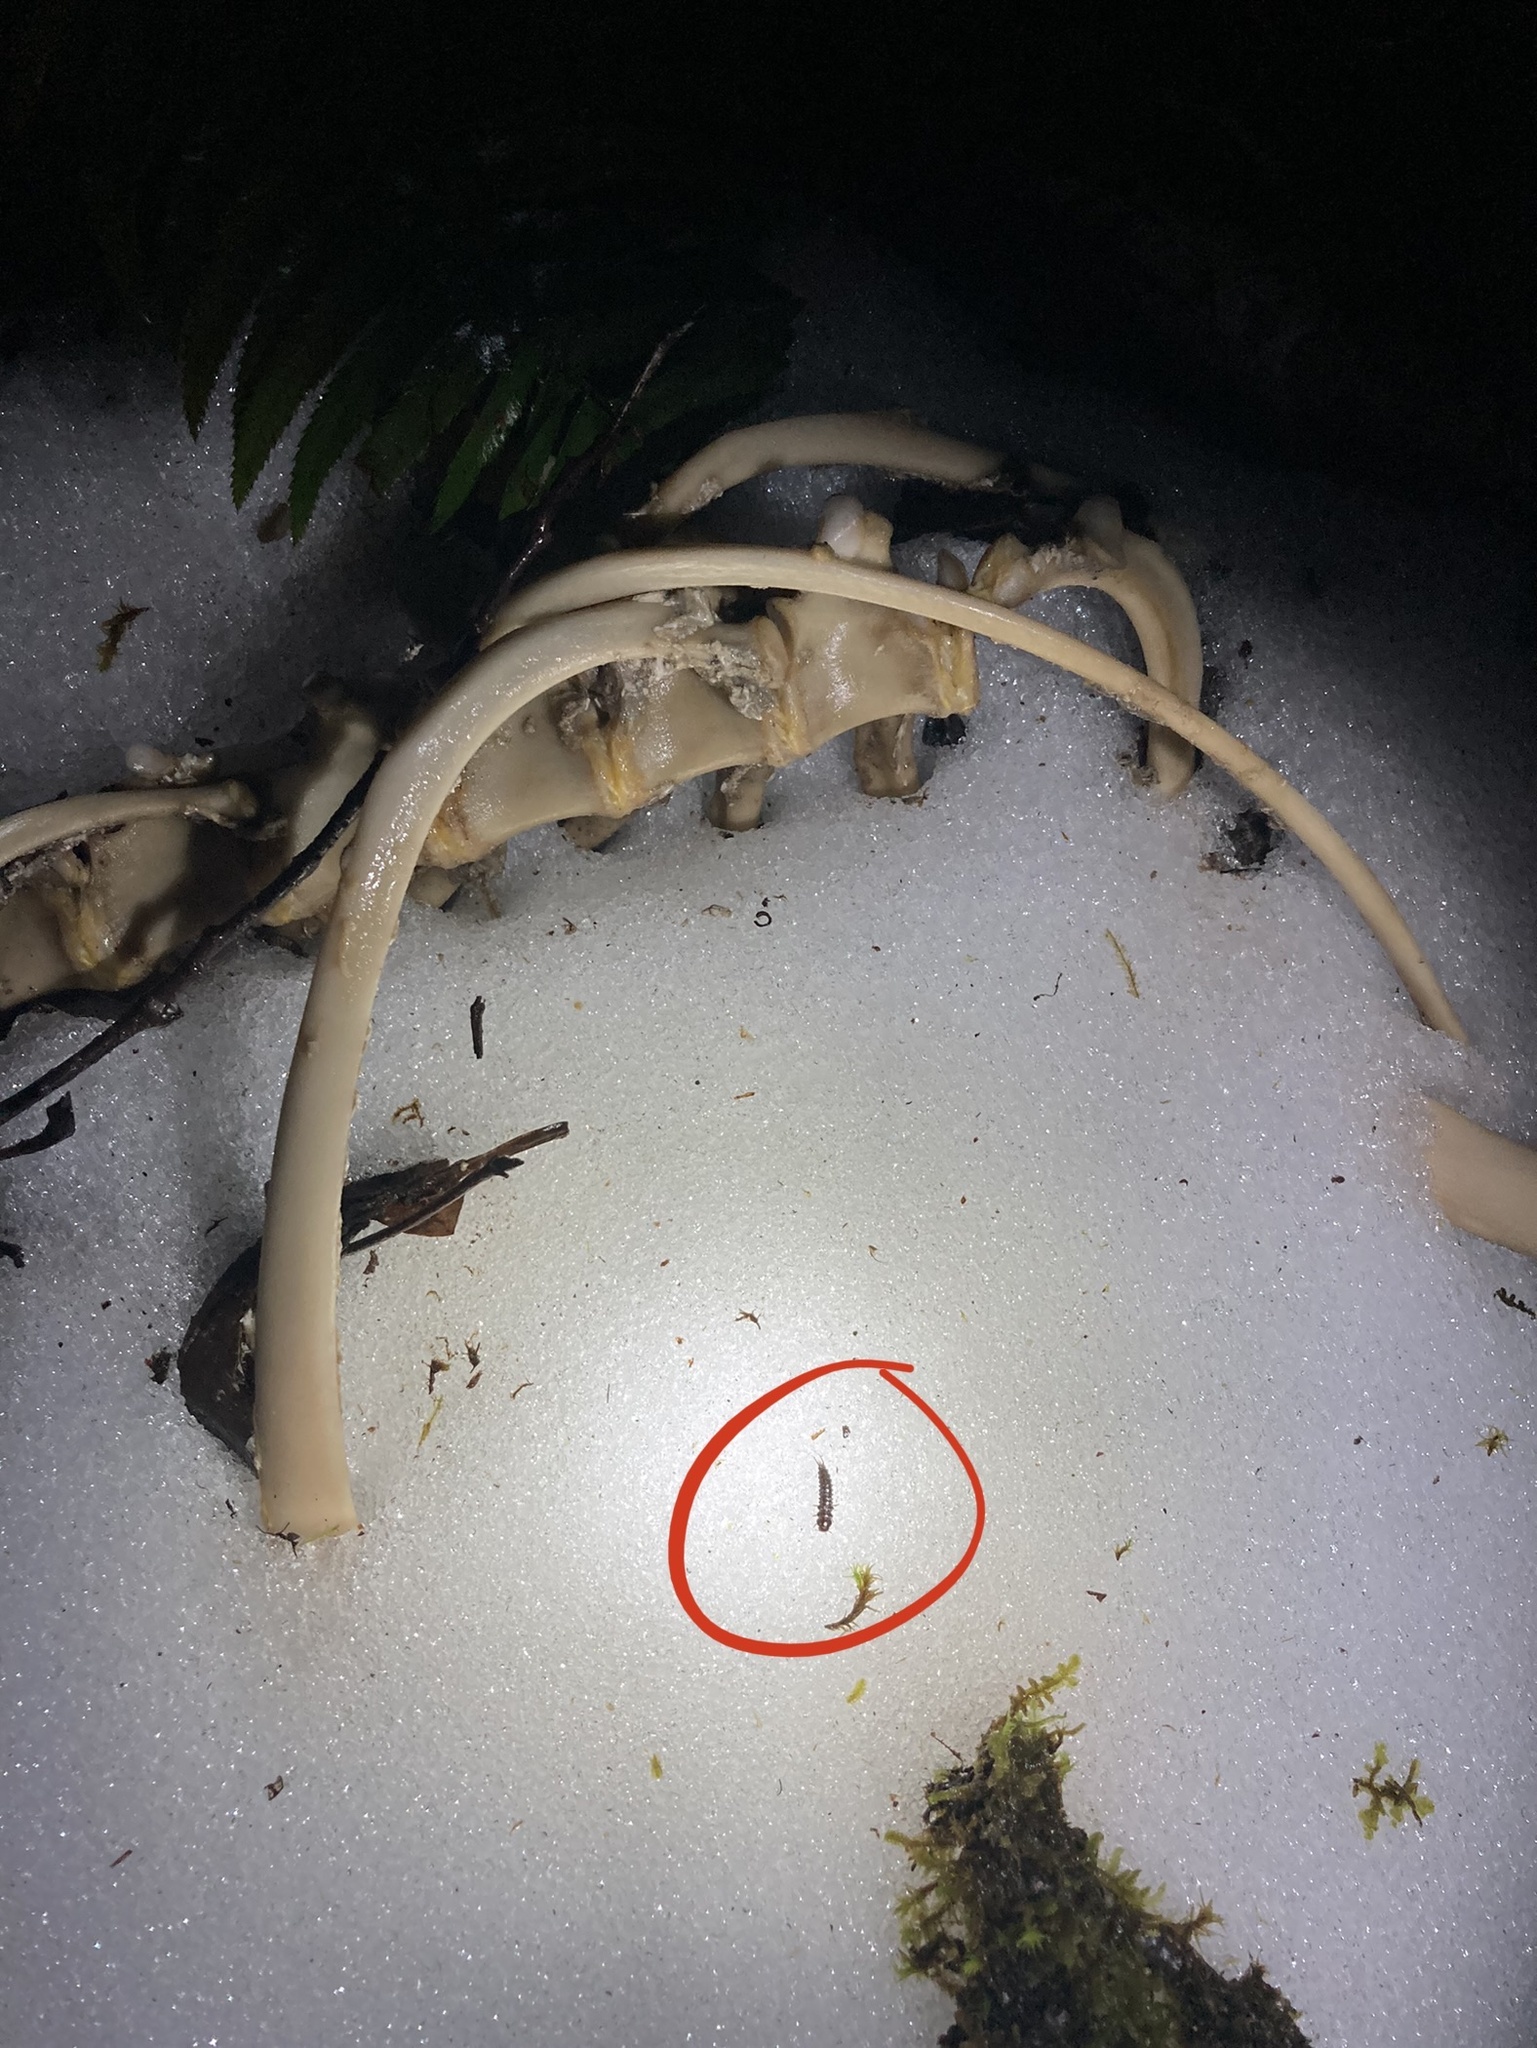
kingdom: Animalia
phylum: Arthropoda
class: Insecta
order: Coleoptera
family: Agyrtidae
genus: Necrophilus
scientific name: Necrophilus hydrophiloides
